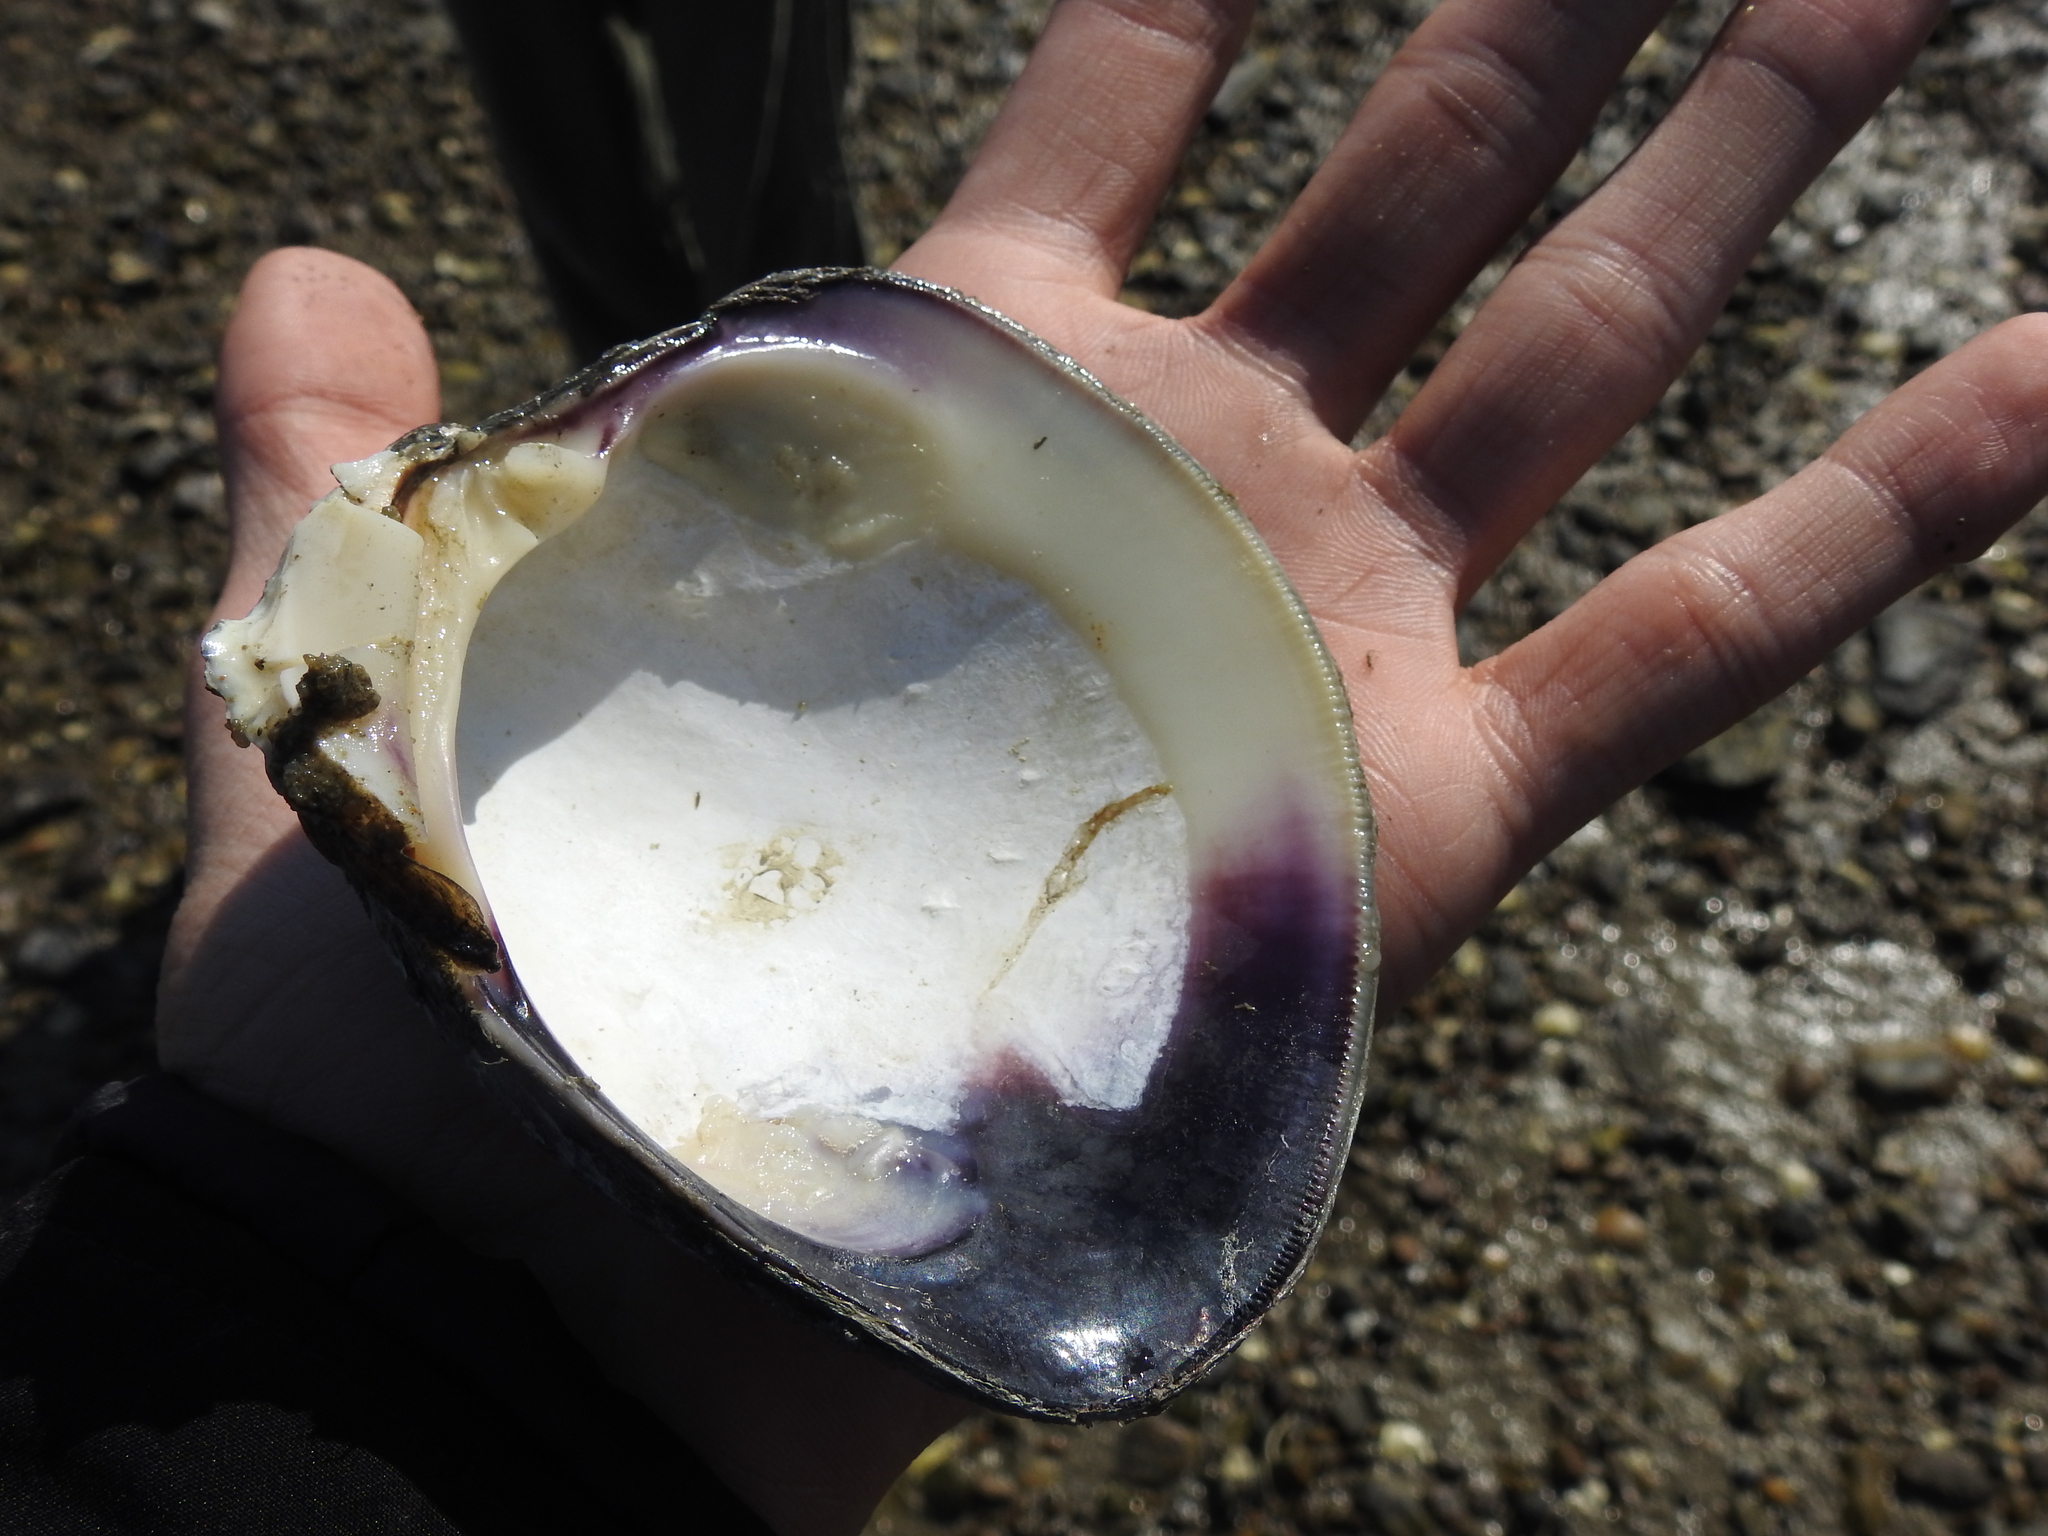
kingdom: Animalia
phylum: Mollusca
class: Bivalvia
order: Venerida
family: Veneridae
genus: Mercenaria
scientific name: Mercenaria mercenaria
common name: American hard-shelled clam
